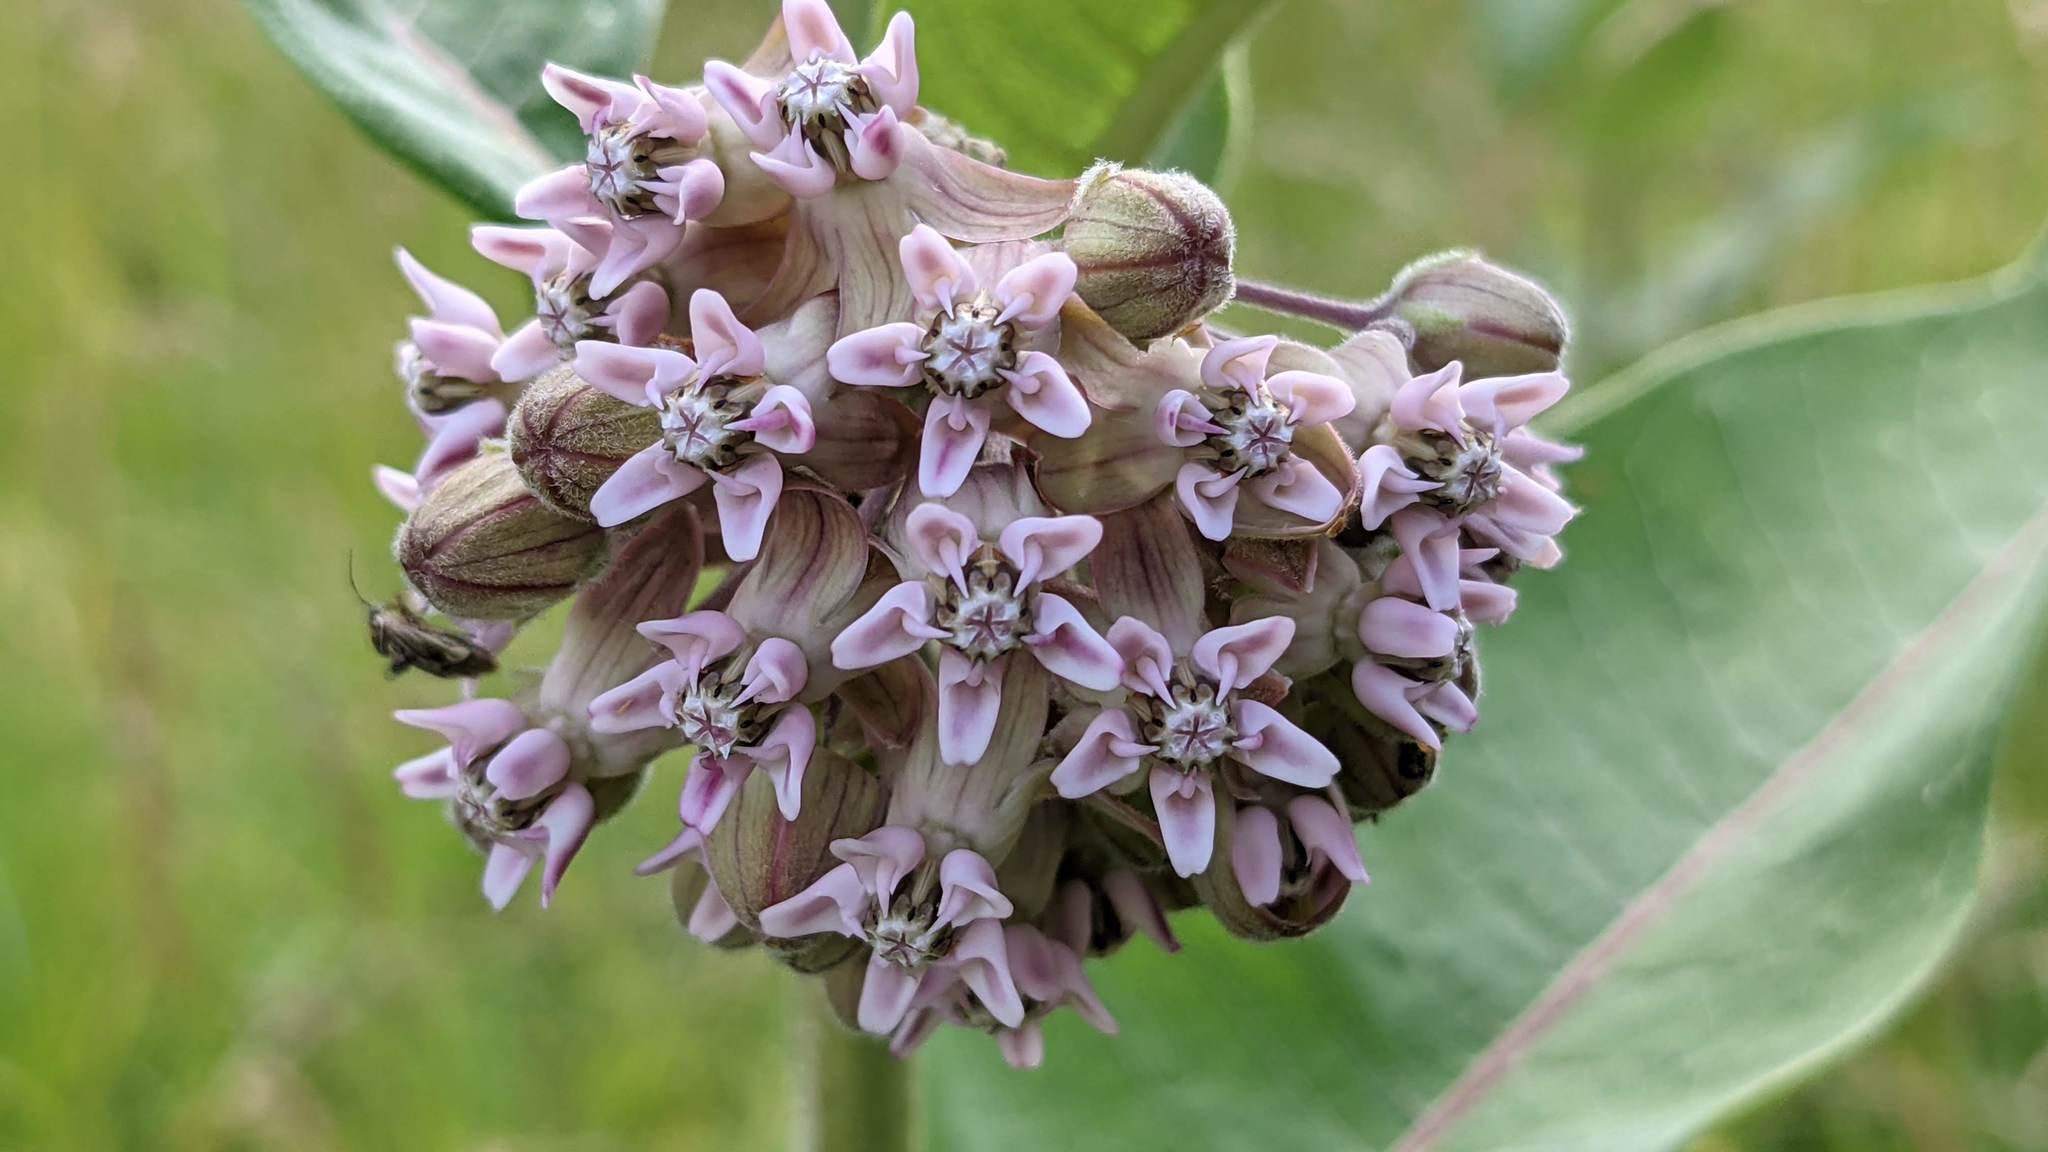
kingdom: Plantae
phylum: Tracheophyta
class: Magnoliopsida
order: Gentianales
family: Apocynaceae
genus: Asclepias
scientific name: Asclepias syriaca
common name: Common milkweed
